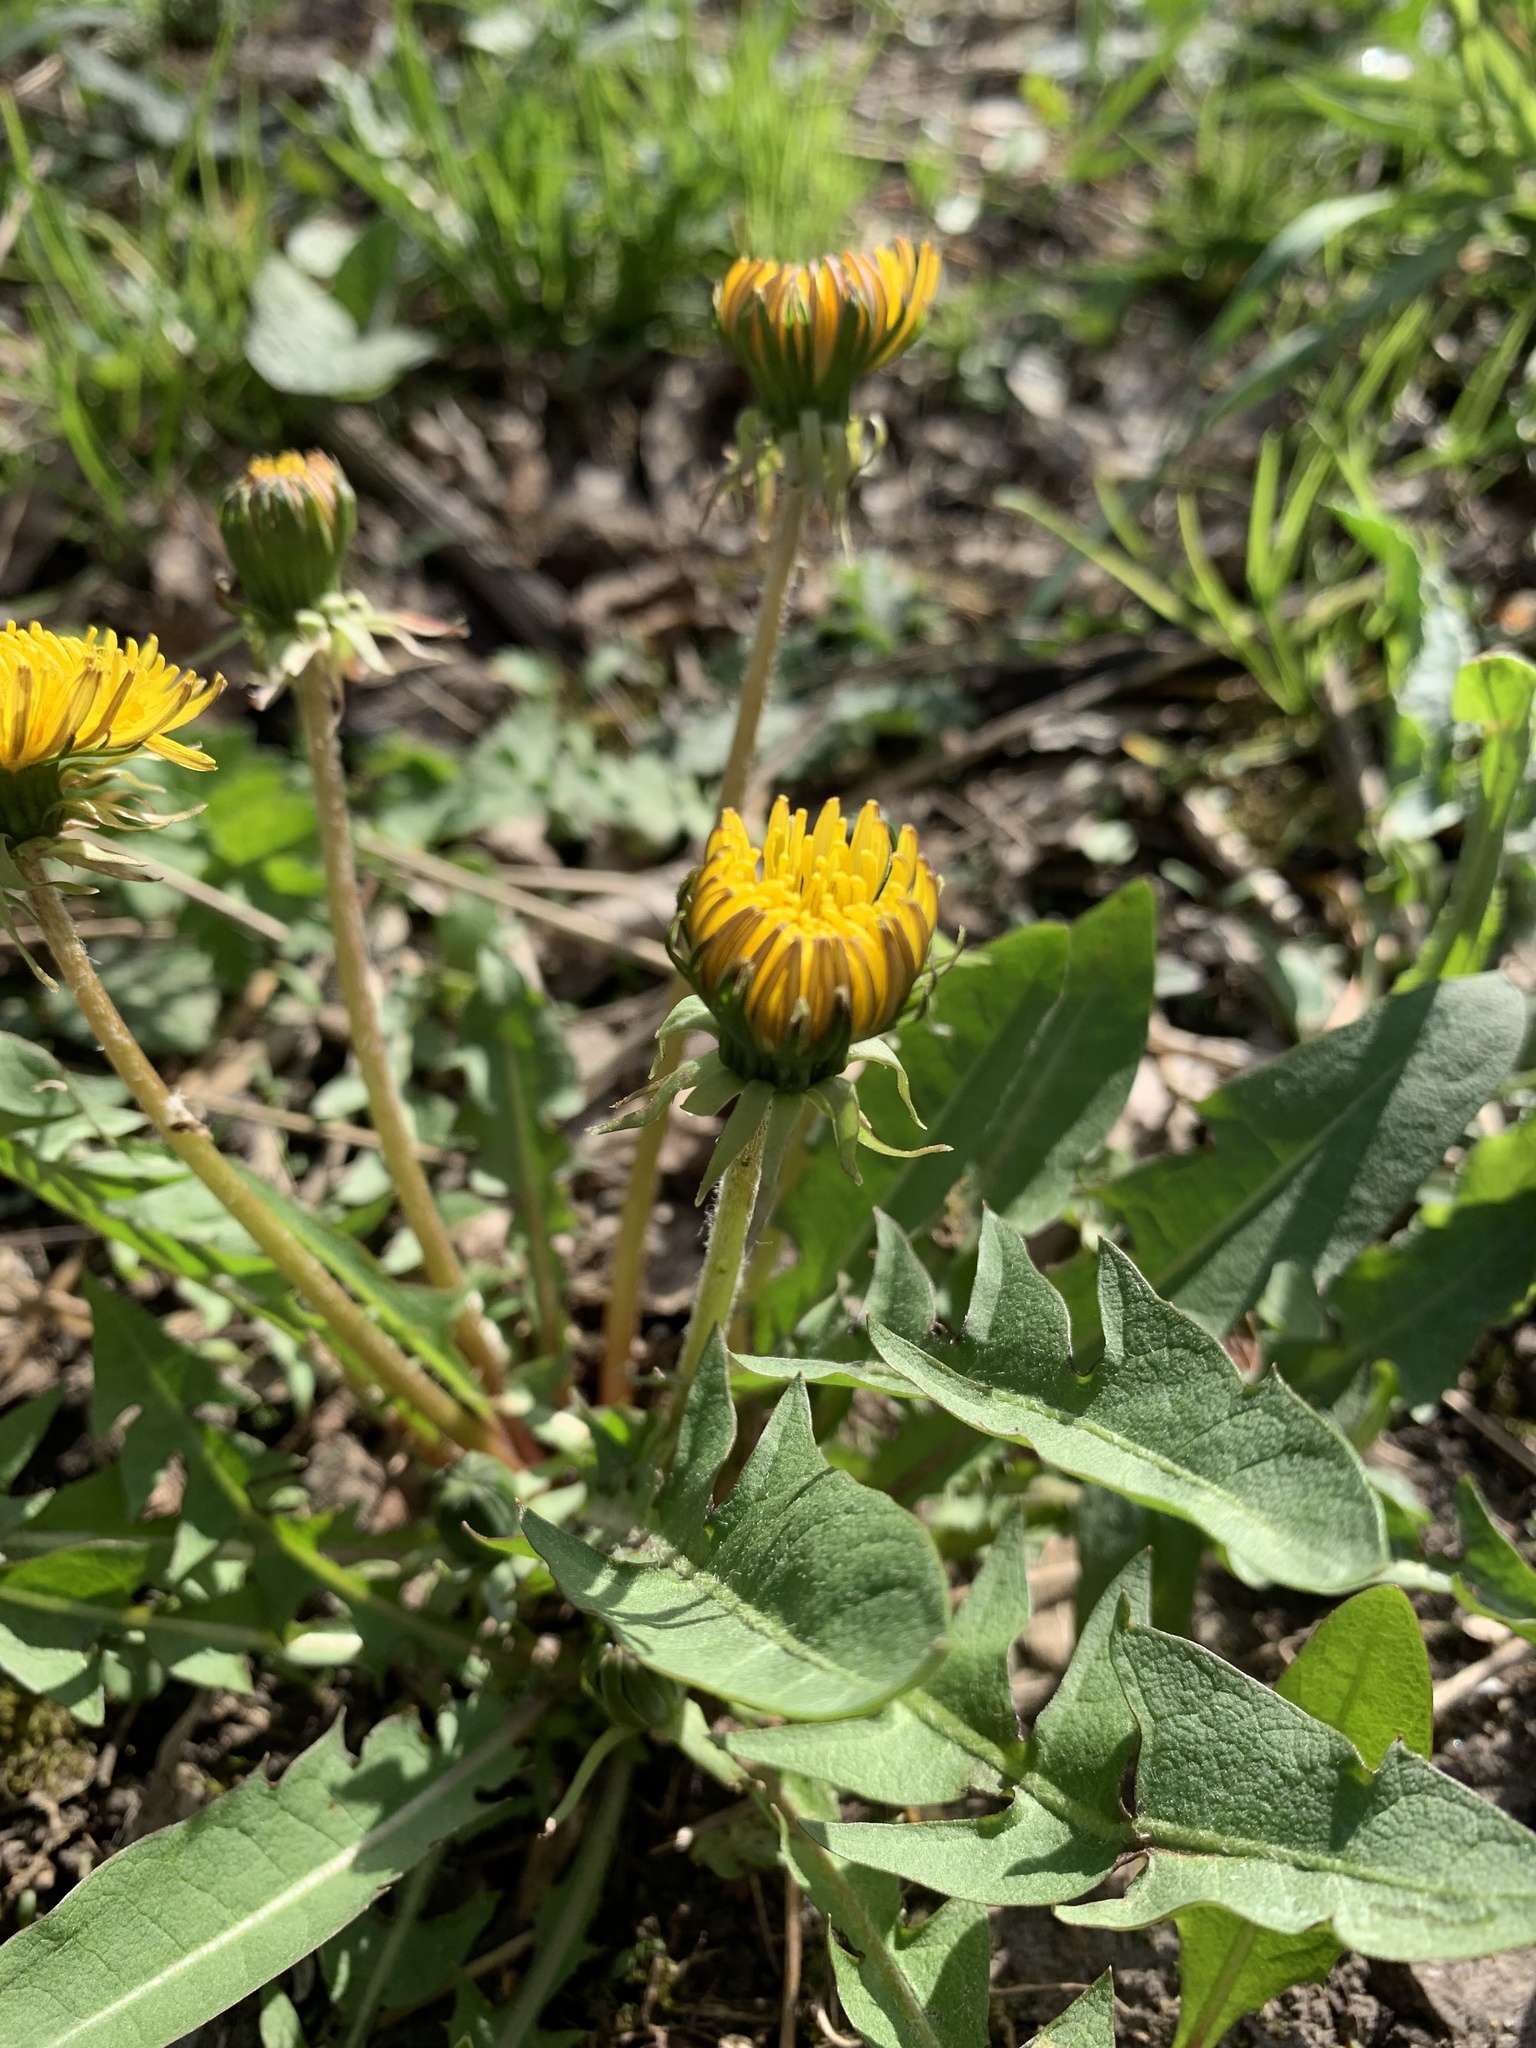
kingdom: Plantae
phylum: Tracheophyta
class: Magnoliopsida
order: Asterales
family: Asteraceae
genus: Taraxacum
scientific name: Taraxacum officinale
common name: Common dandelion
